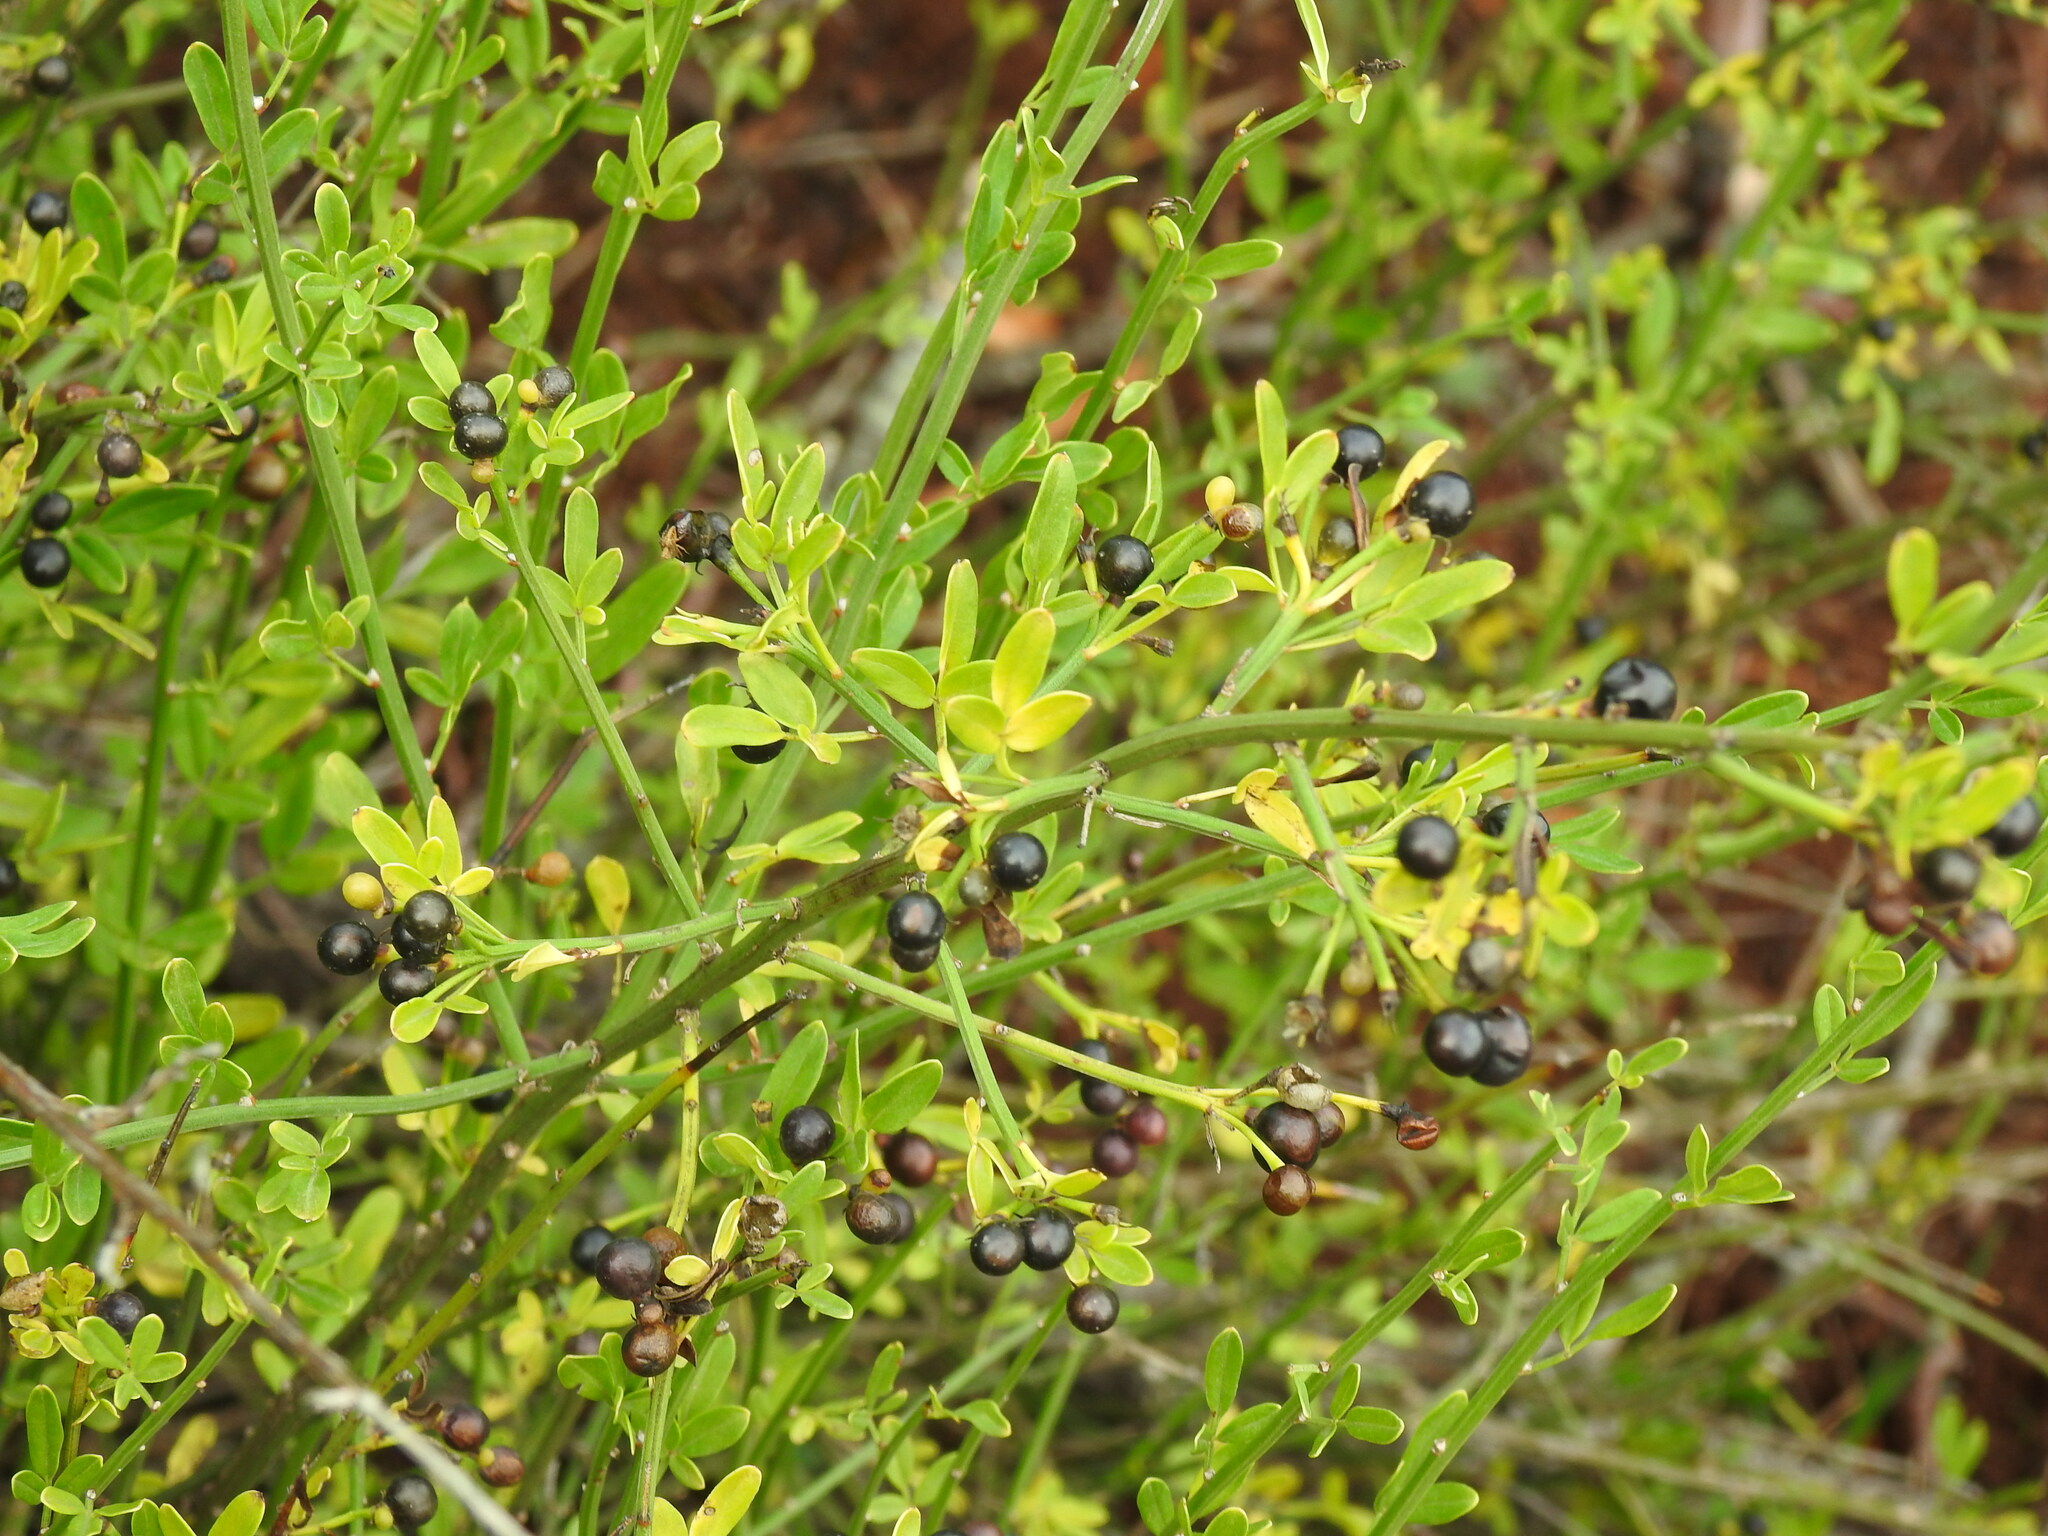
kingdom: Plantae
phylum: Tracheophyta
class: Magnoliopsida
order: Lamiales
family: Oleaceae
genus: Chrysojasminum
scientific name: Chrysojasminum fruticans
